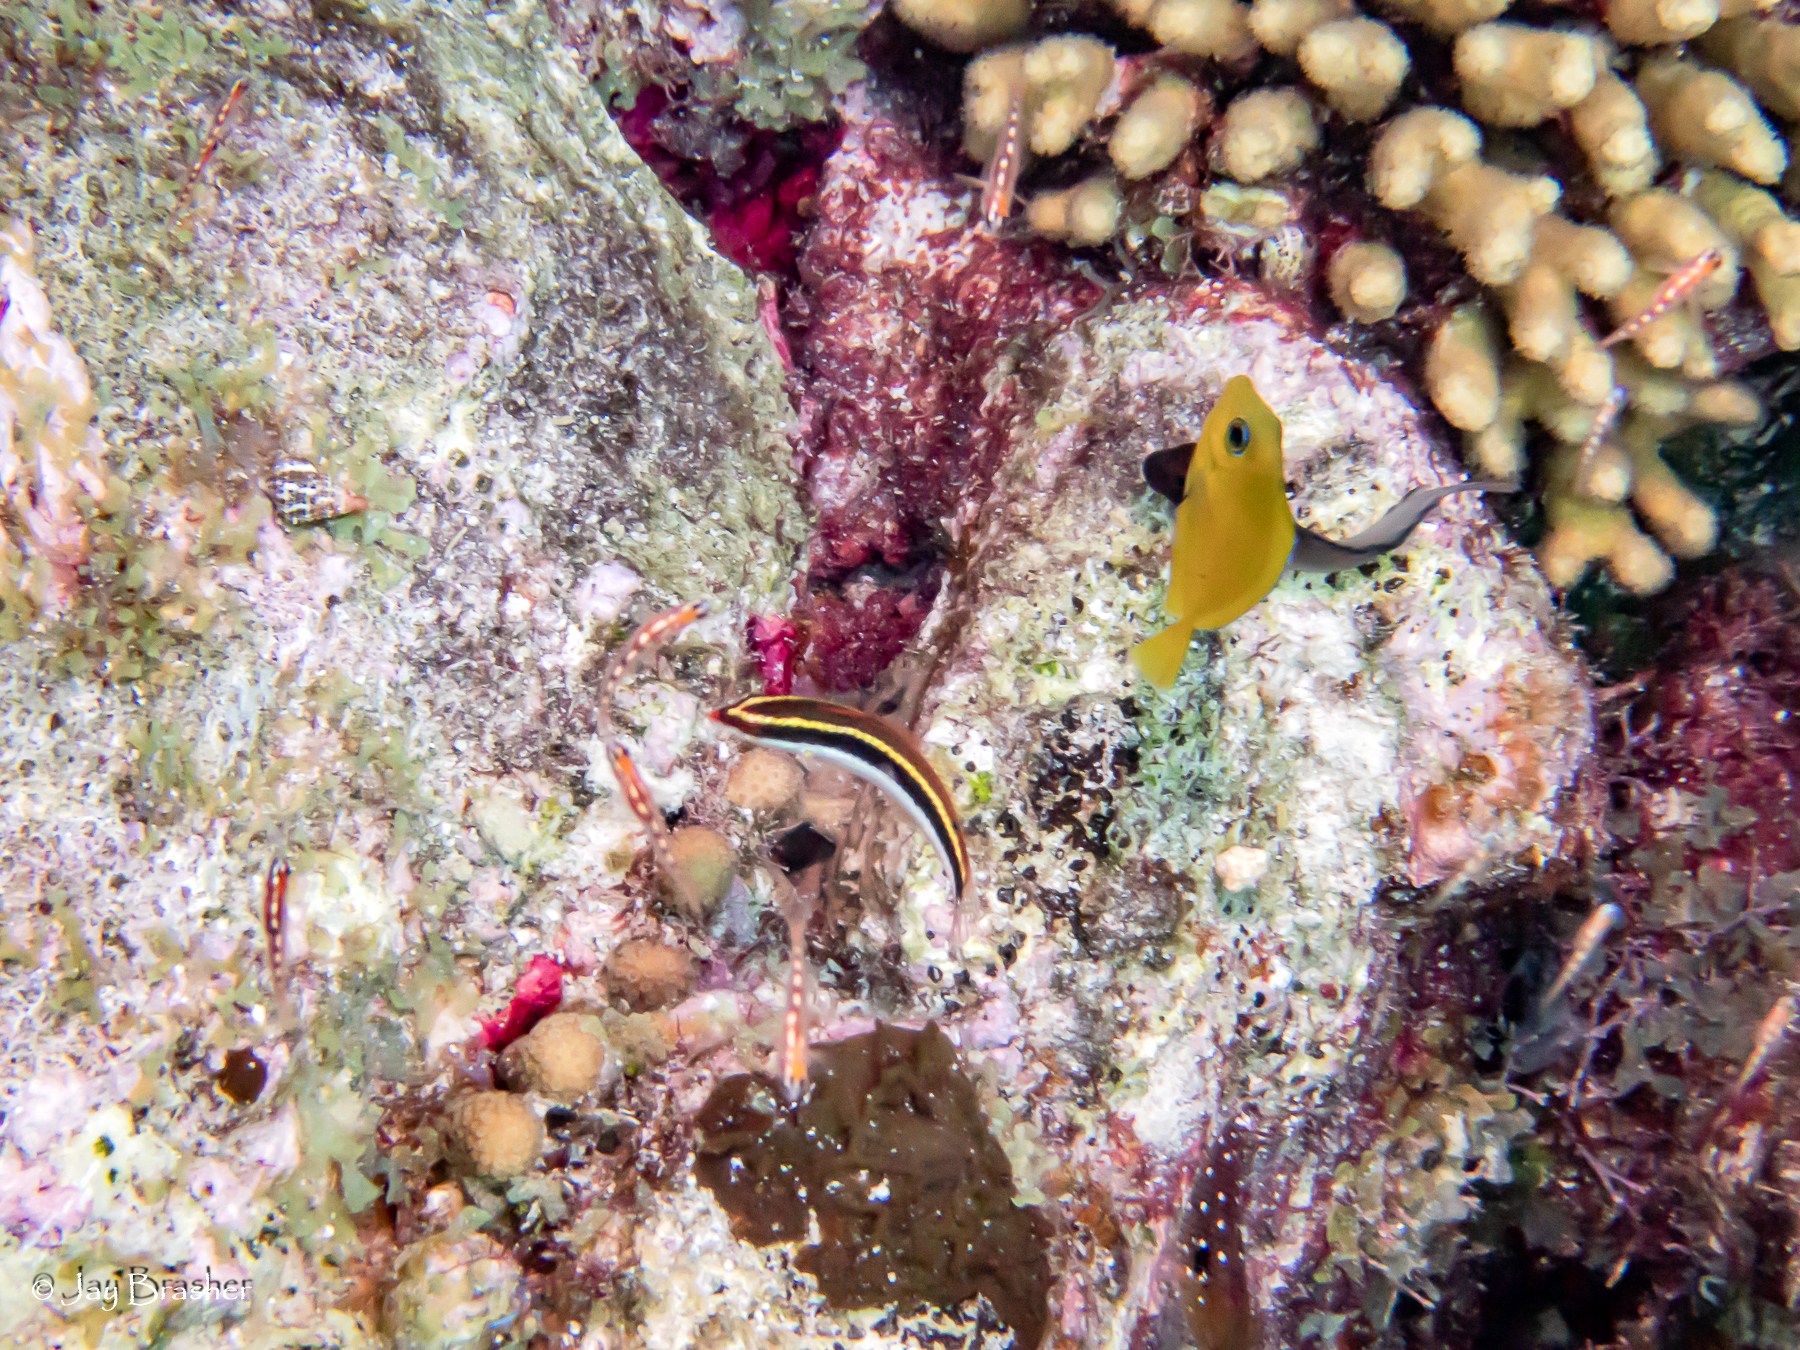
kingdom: Animalia
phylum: Chordata
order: Perciformes
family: Labridae
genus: Halichoeres
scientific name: Halichoeres maculipinna
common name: Clown wrasse
